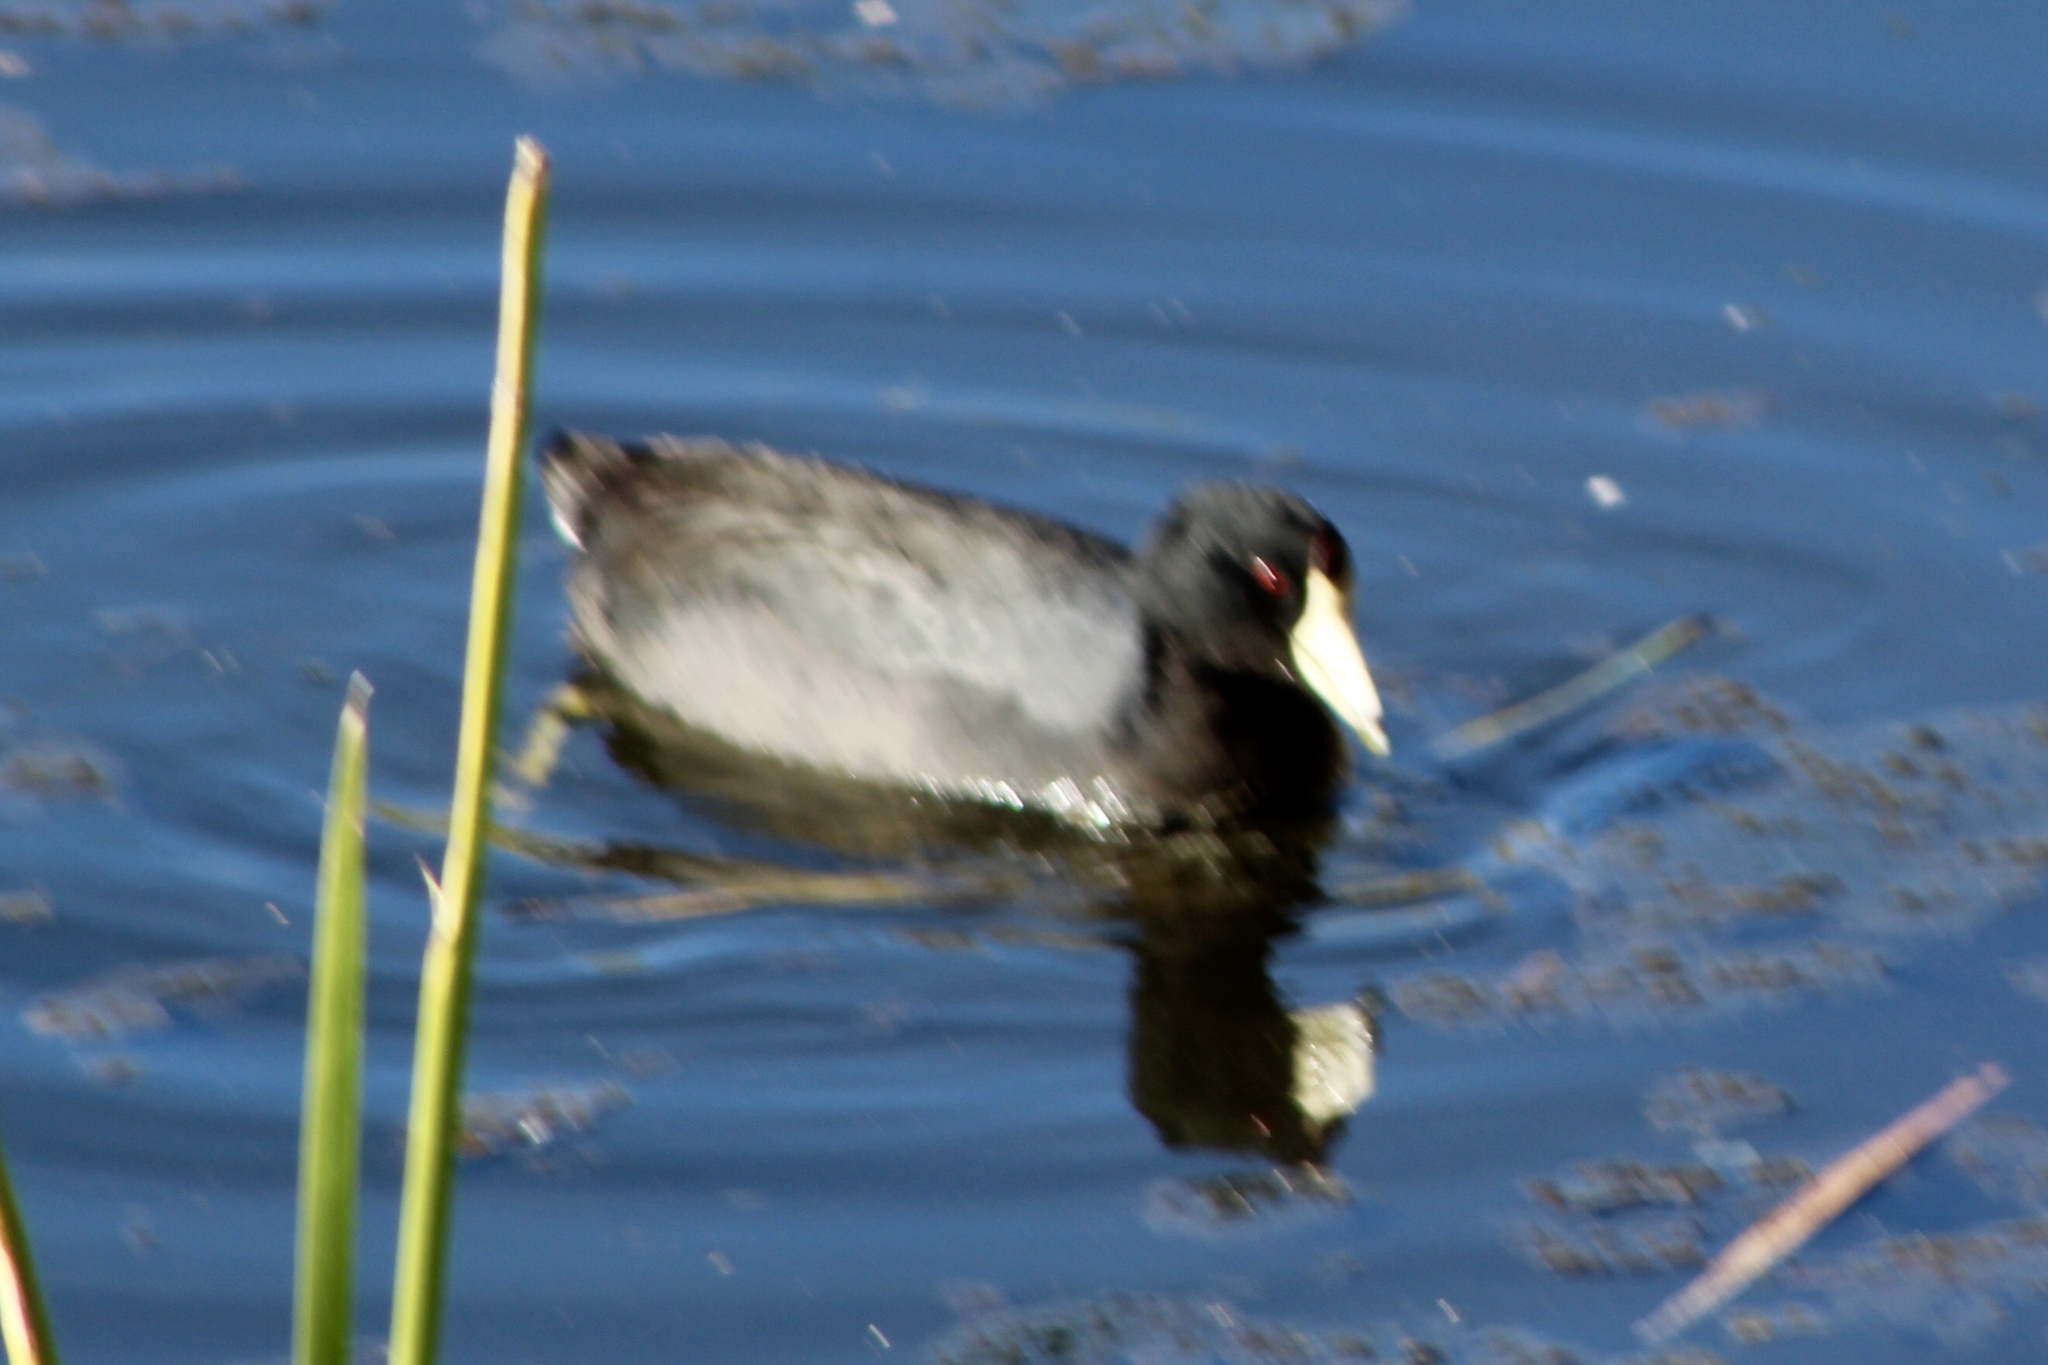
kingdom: Animalia
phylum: Chordata
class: Aves
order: Gruiformes
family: Rallidae
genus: Fulica
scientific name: Fulica americana
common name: American coot
